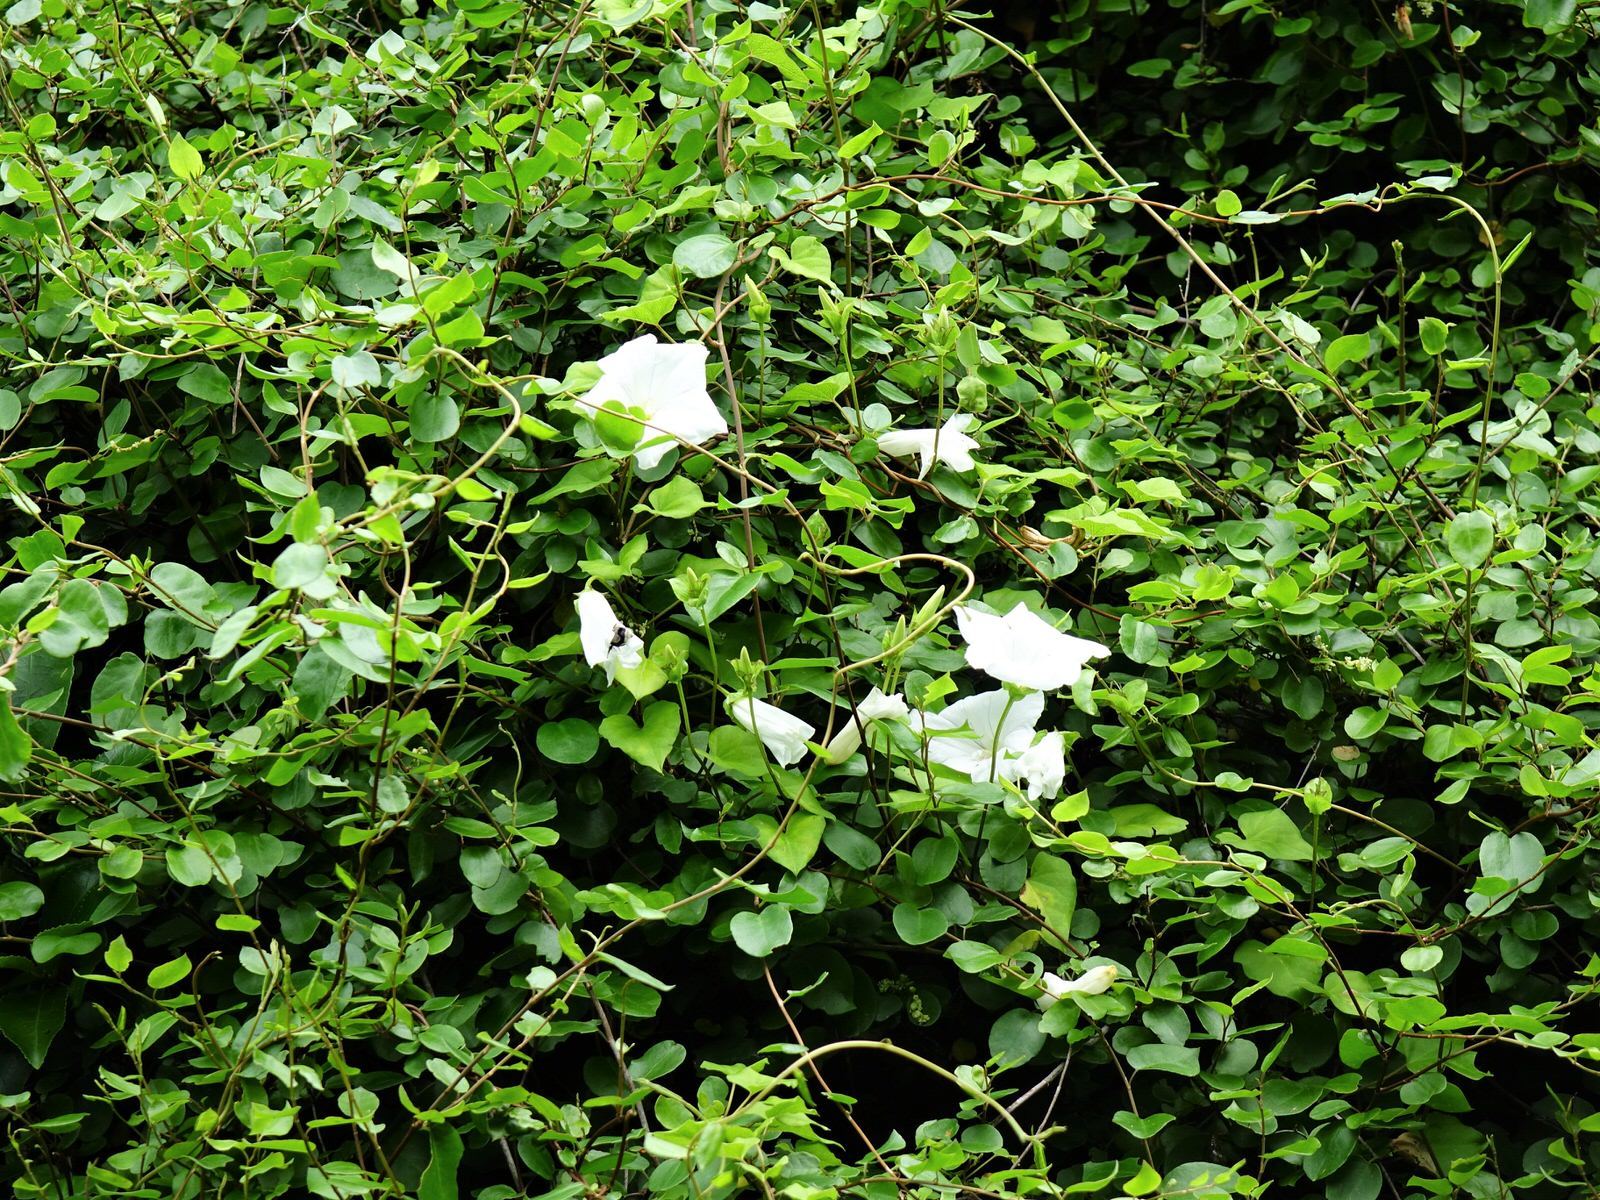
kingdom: Plantae
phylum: Tracheophyta
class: Magnoliopsida
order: Solanales
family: Convolvulaceae
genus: Calystegia
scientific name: Calystegia tuguriorum
